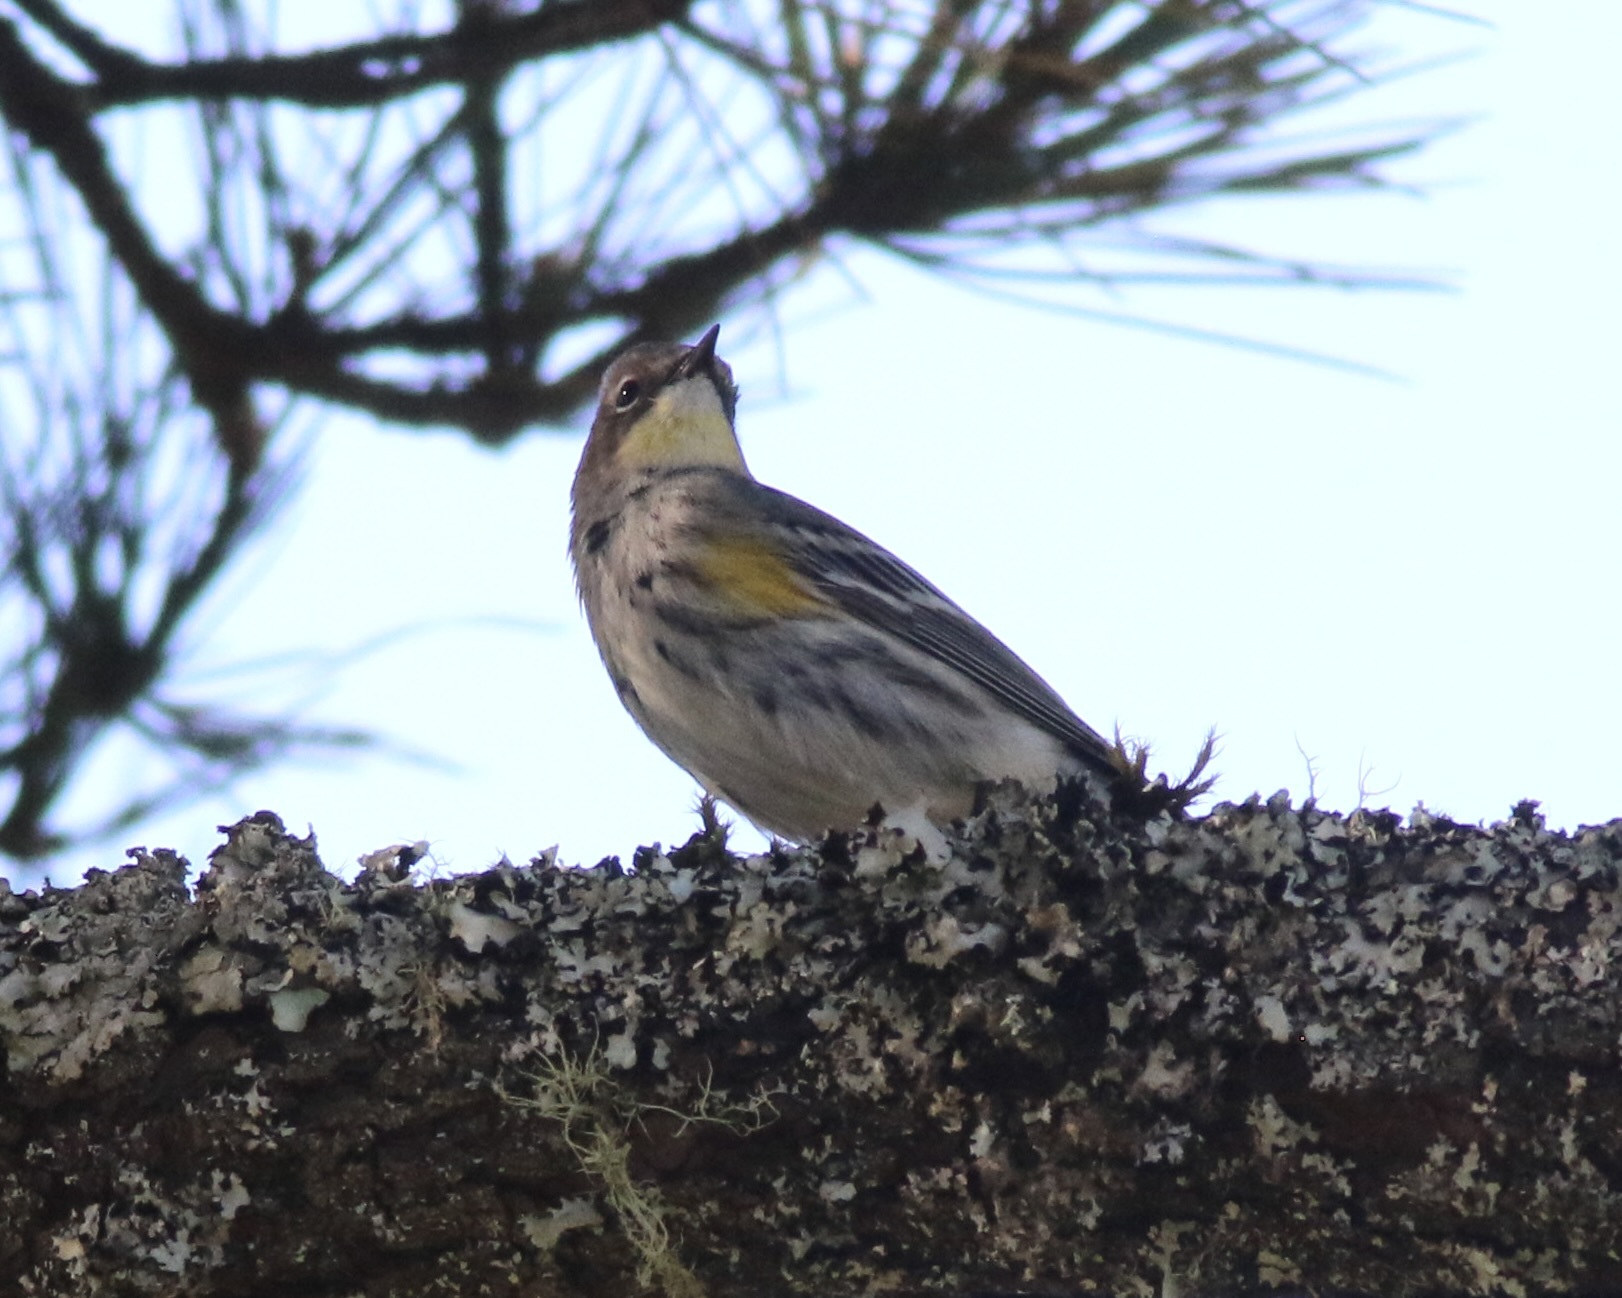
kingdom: Animalia
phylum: Chordata
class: Aves
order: Passeriformes
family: Parulidae
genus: Setophaga
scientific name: Setophaga coronata
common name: Myrtle warbler
